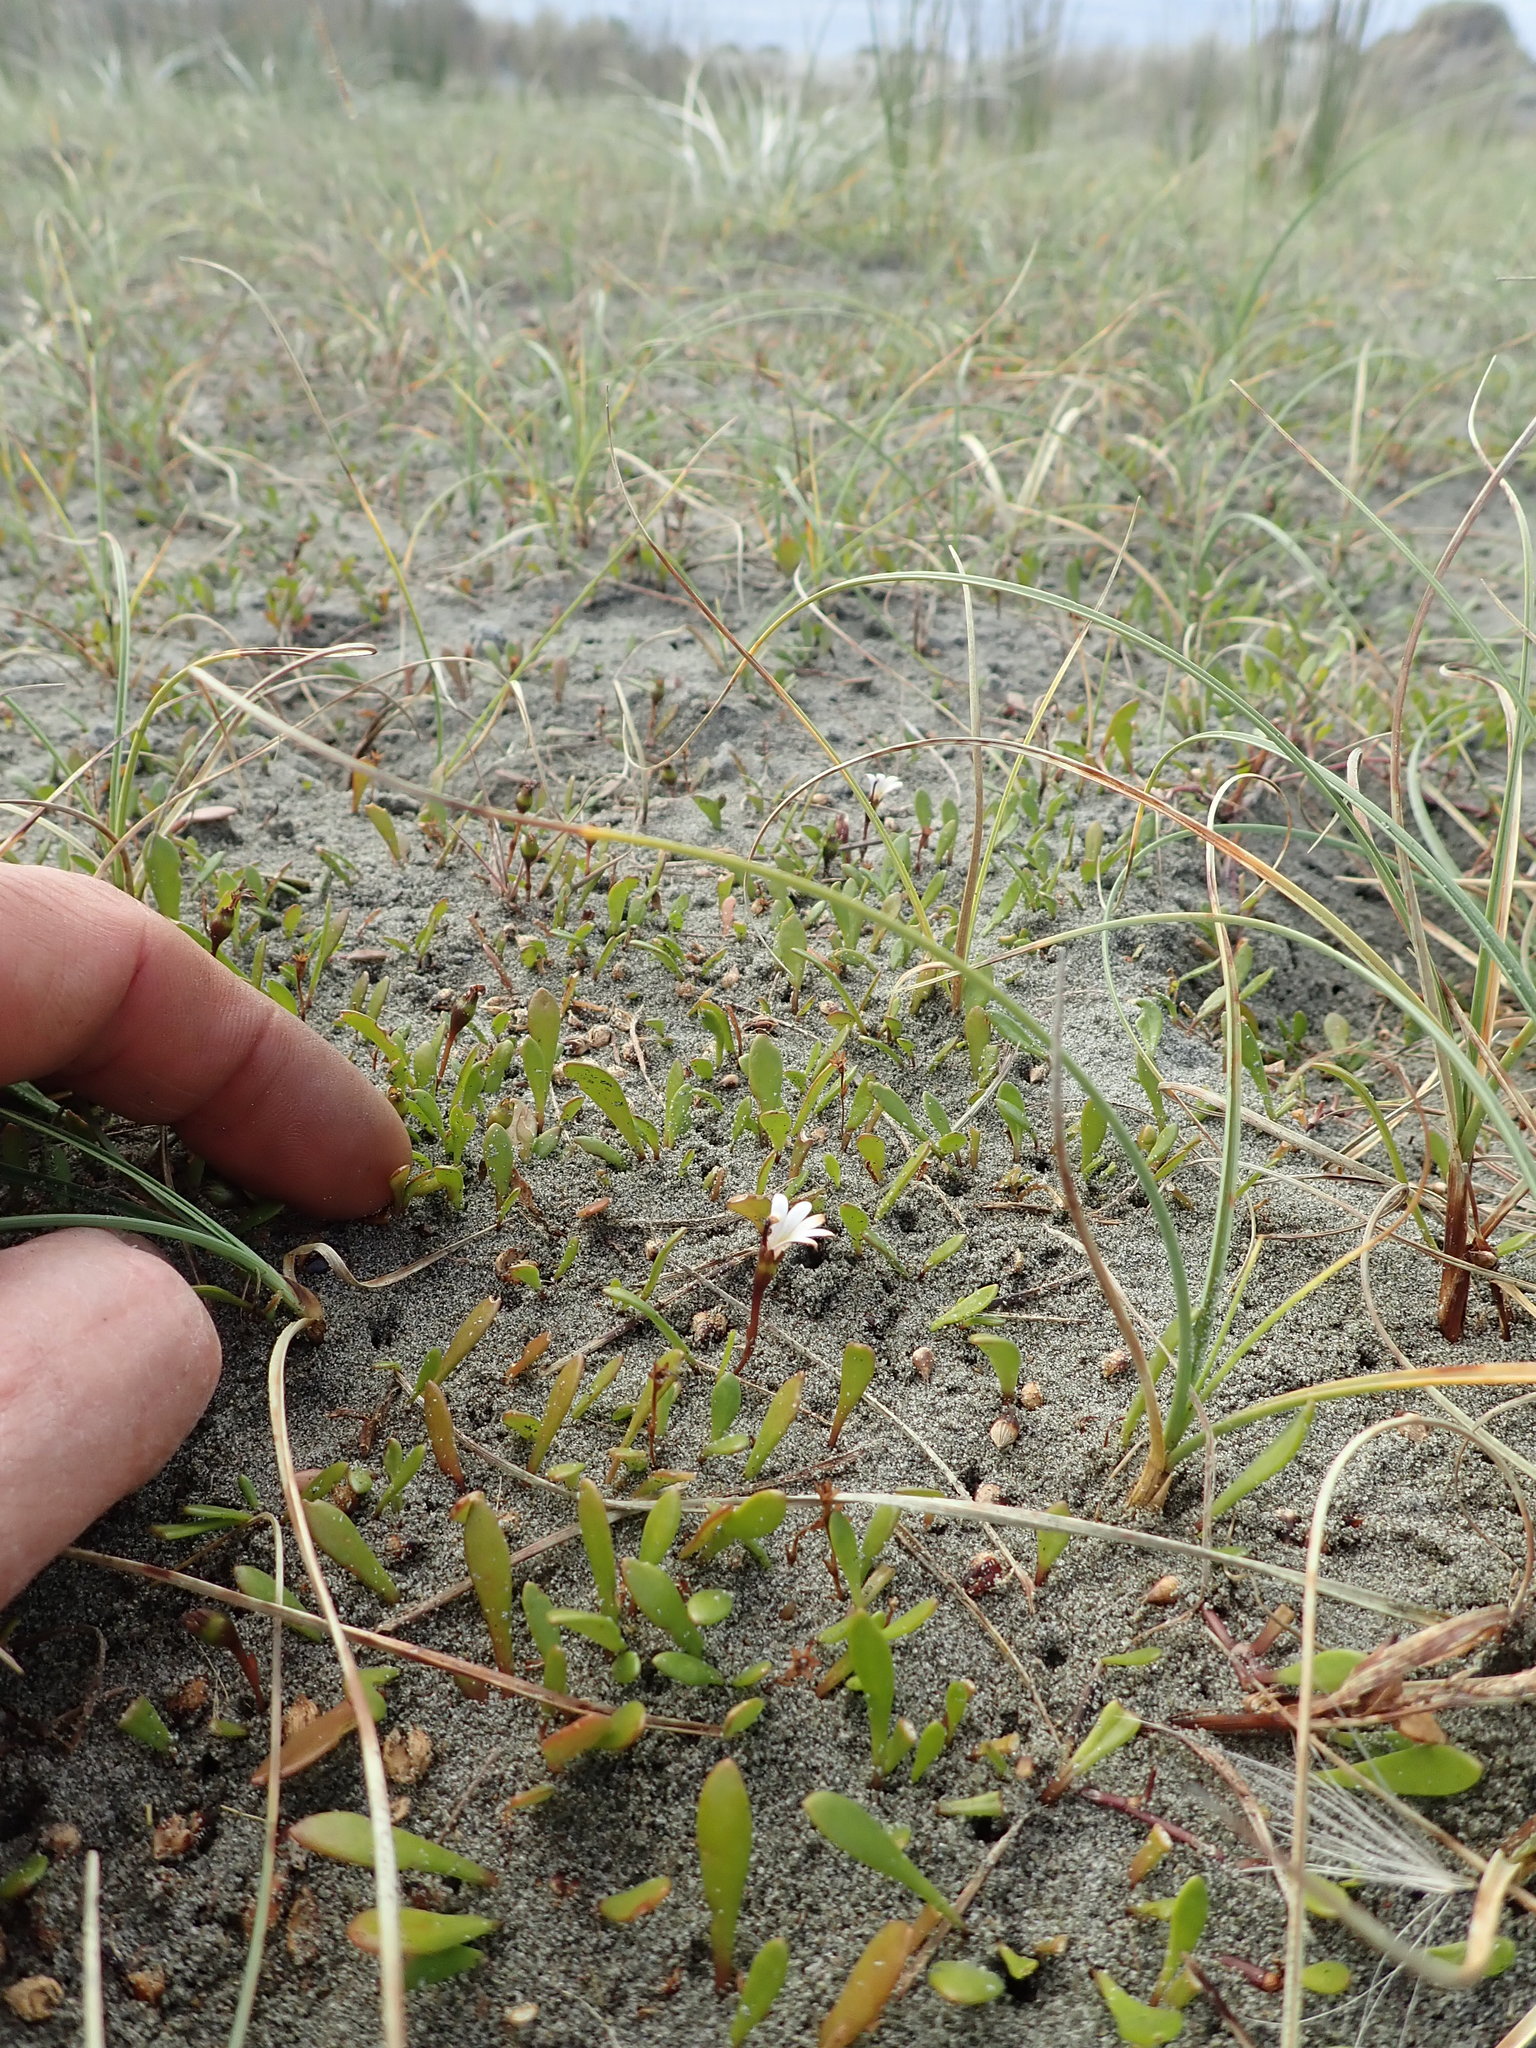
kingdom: Plantae
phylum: Tracheophyta
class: Magnoliopsida
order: Asterales
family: Goodeniaceae
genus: Goodenia
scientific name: Goodenia radicans
